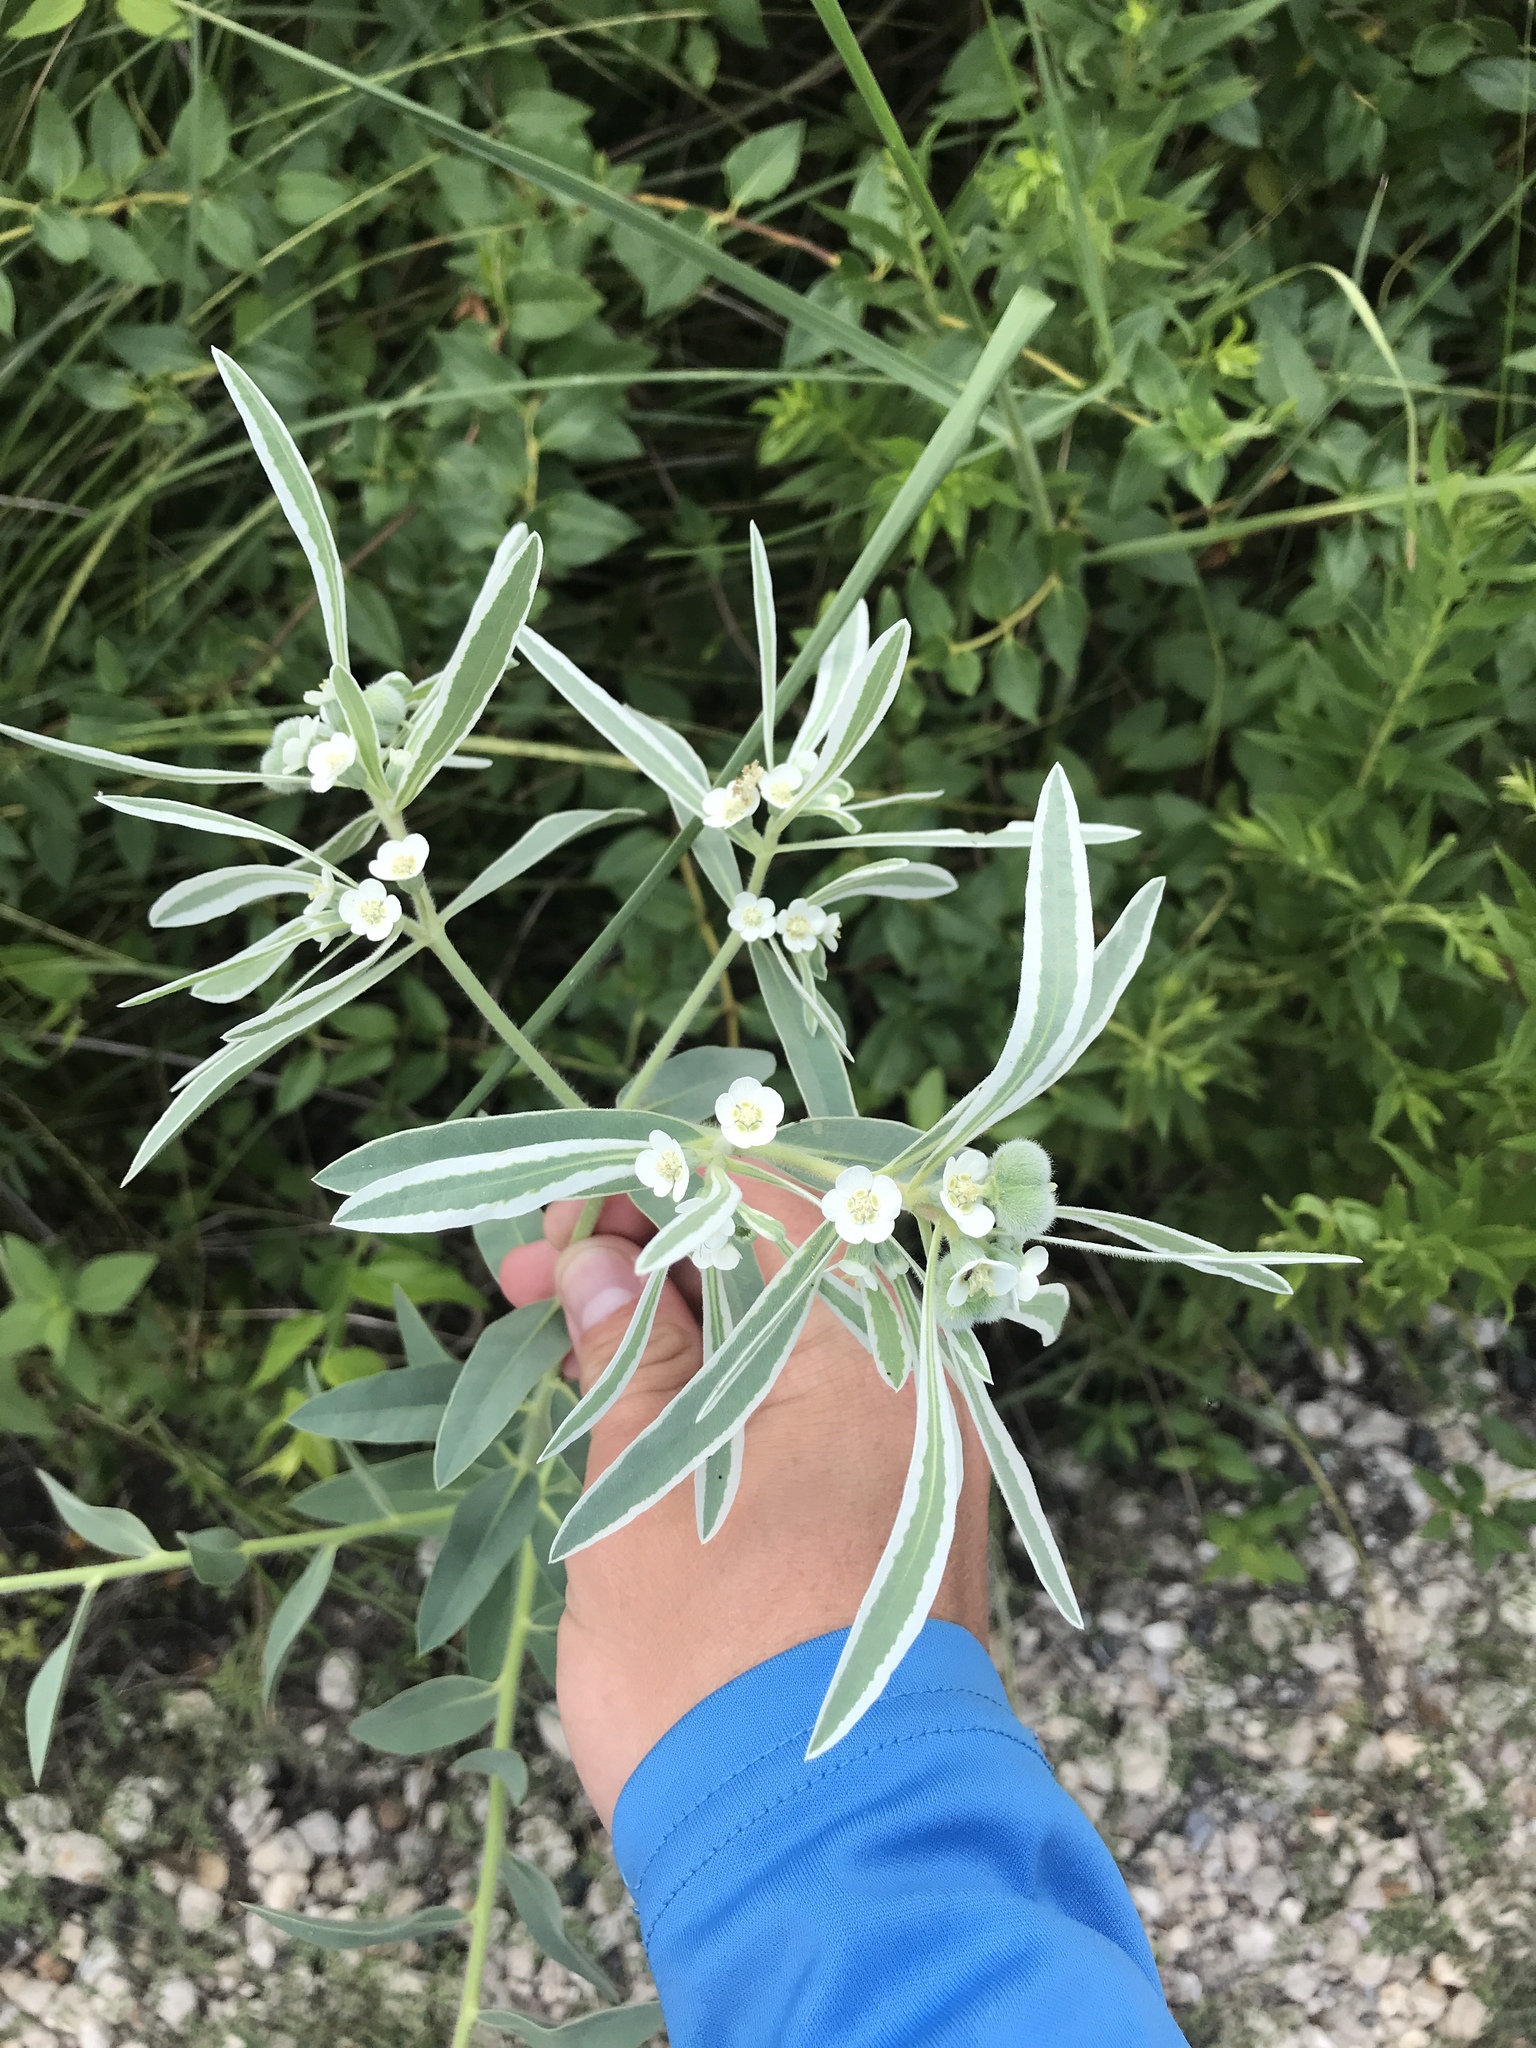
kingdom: Plantae
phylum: Tracheophyta
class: Magnoliopsida
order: Malpighiales
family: Euphorbiaceae
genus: Euphorbia
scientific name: Euphorbia bicolor
